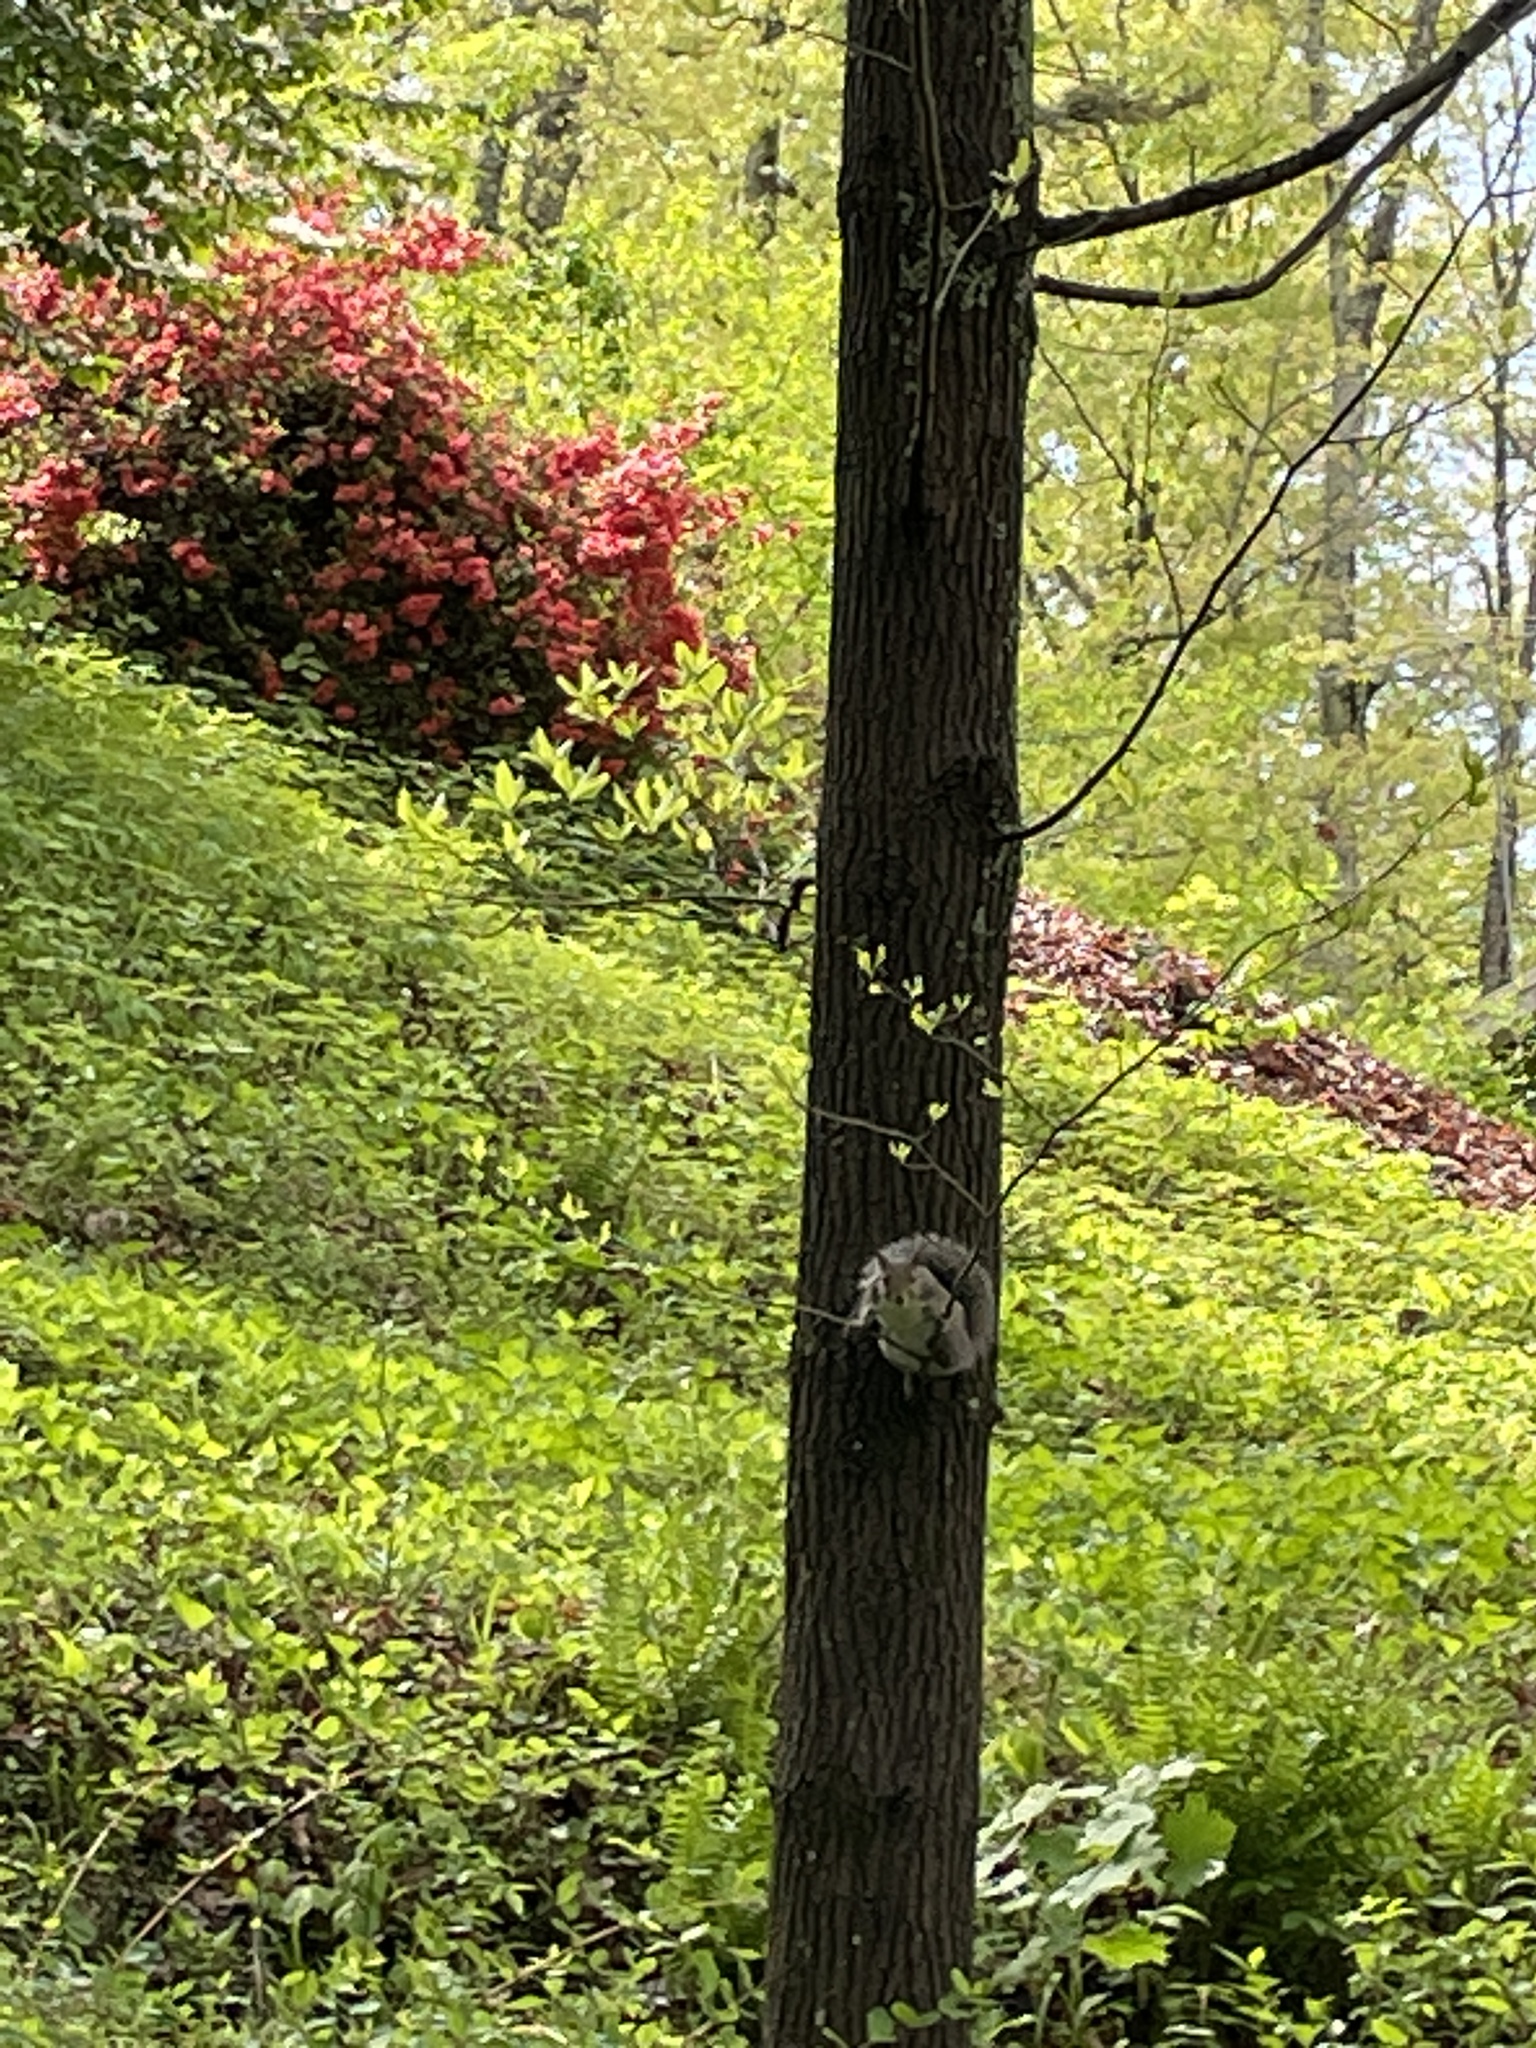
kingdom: Animalia
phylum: Chordata
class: Mammalia
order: Rodentia
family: Sciuridae
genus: Sciurus
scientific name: Sciurus carolinensis
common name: Eastern gray squirrel
